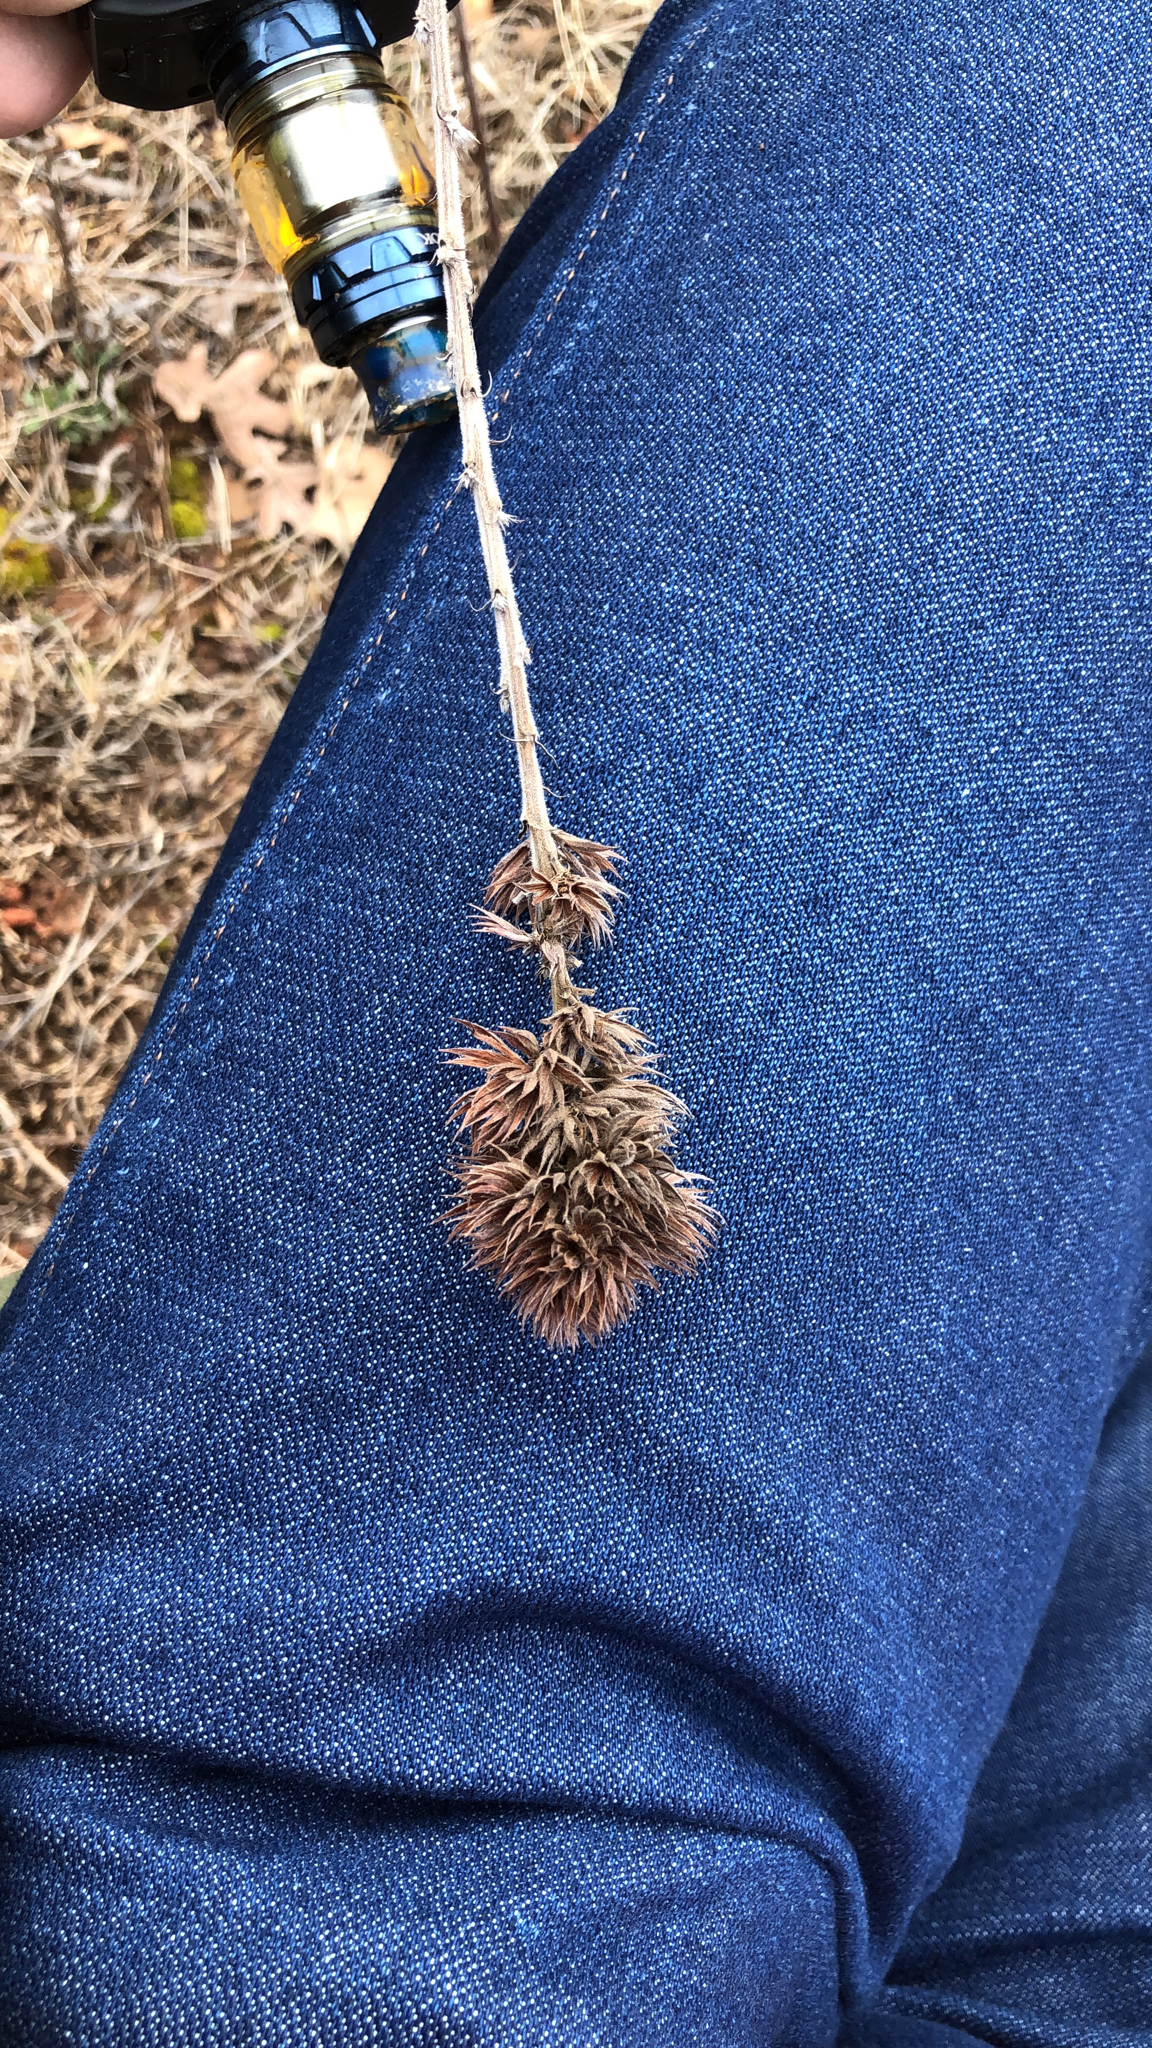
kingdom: Plantae
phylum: Tracheophyta
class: Magnoliopsida
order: Fabales
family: Fabaceae
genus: Lespedeza
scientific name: Lespedeza capitata
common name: Dusty clover
